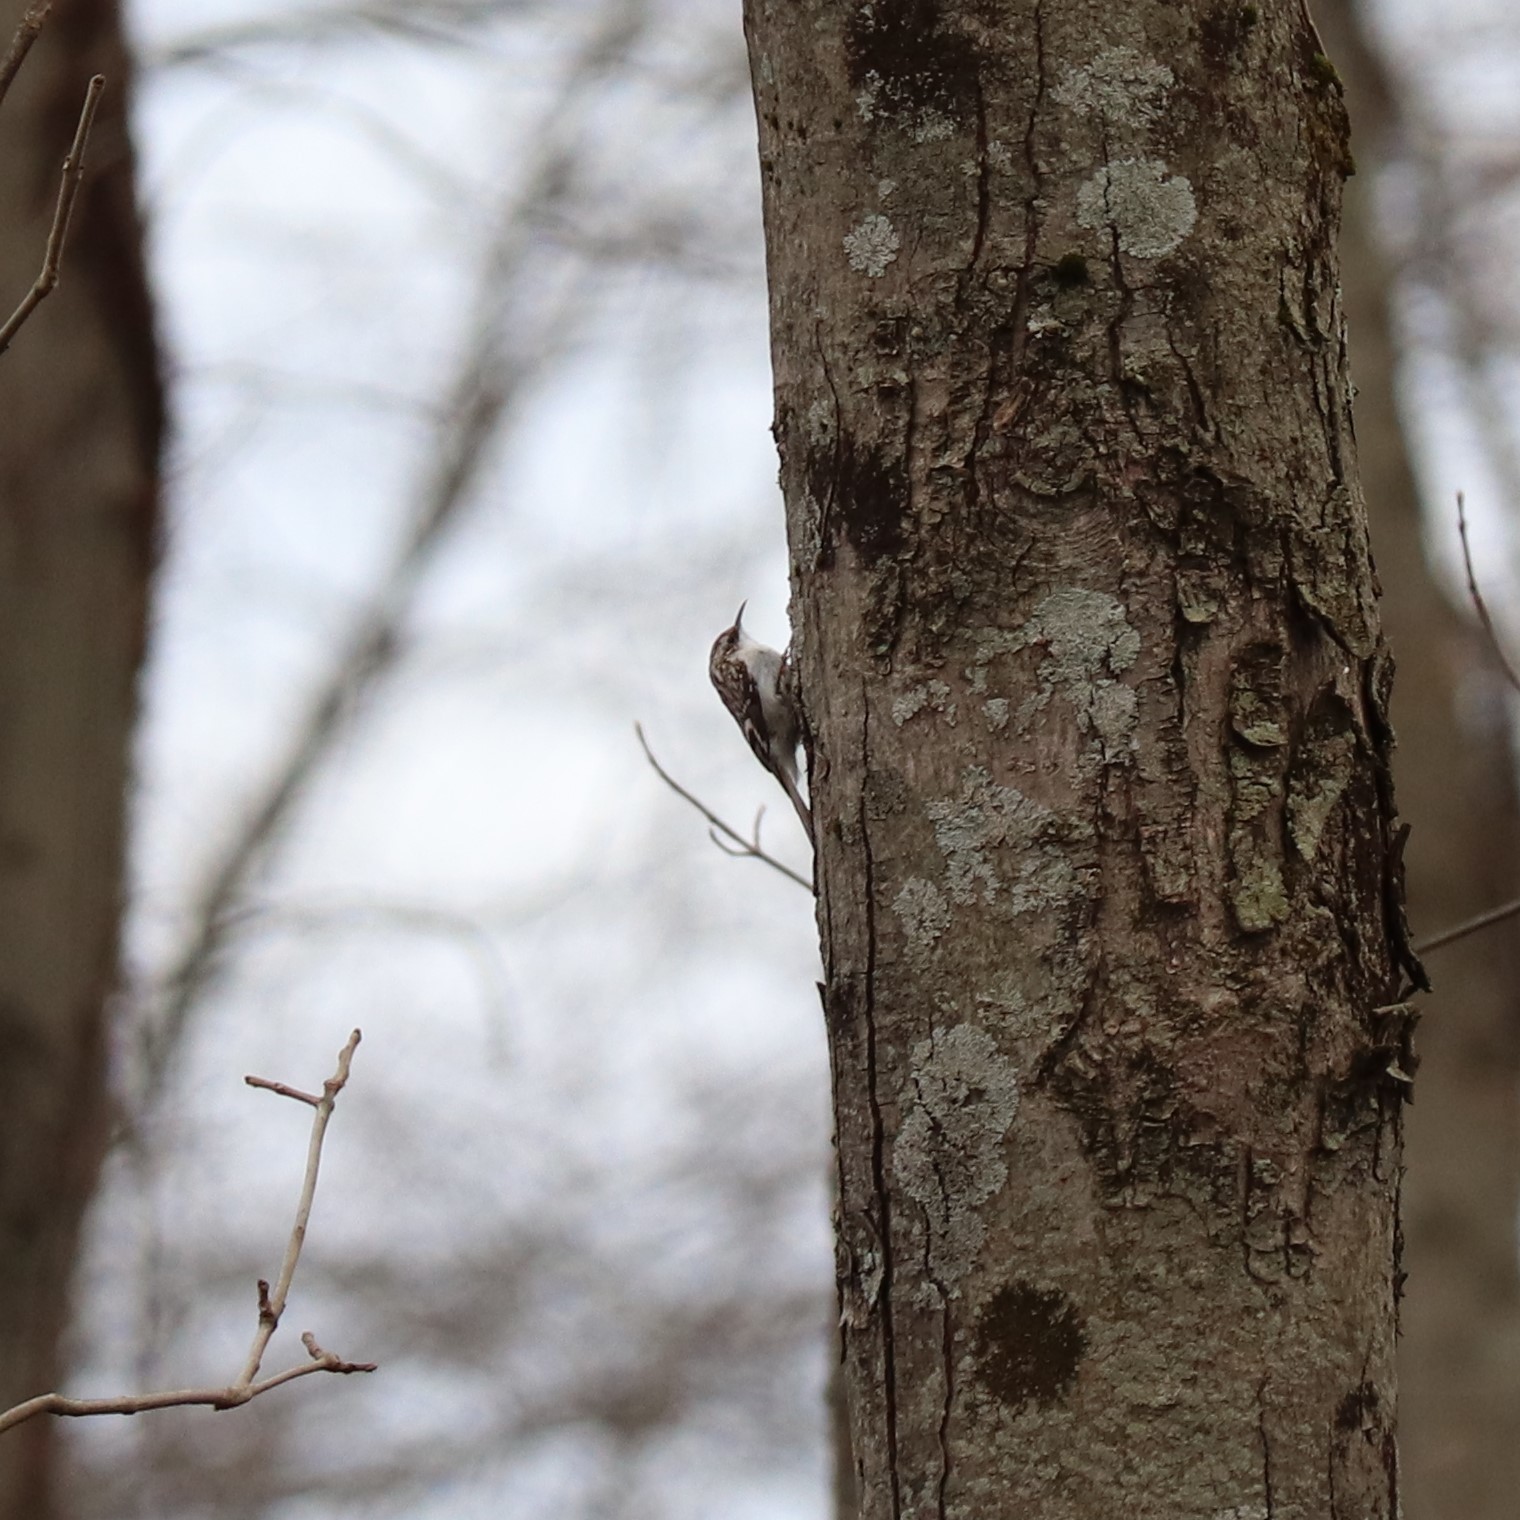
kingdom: Animalia
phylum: Chordata
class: Aves
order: Passeriformes
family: Certhiidae
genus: Certhia
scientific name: Certhia americana
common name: Brown creeper
